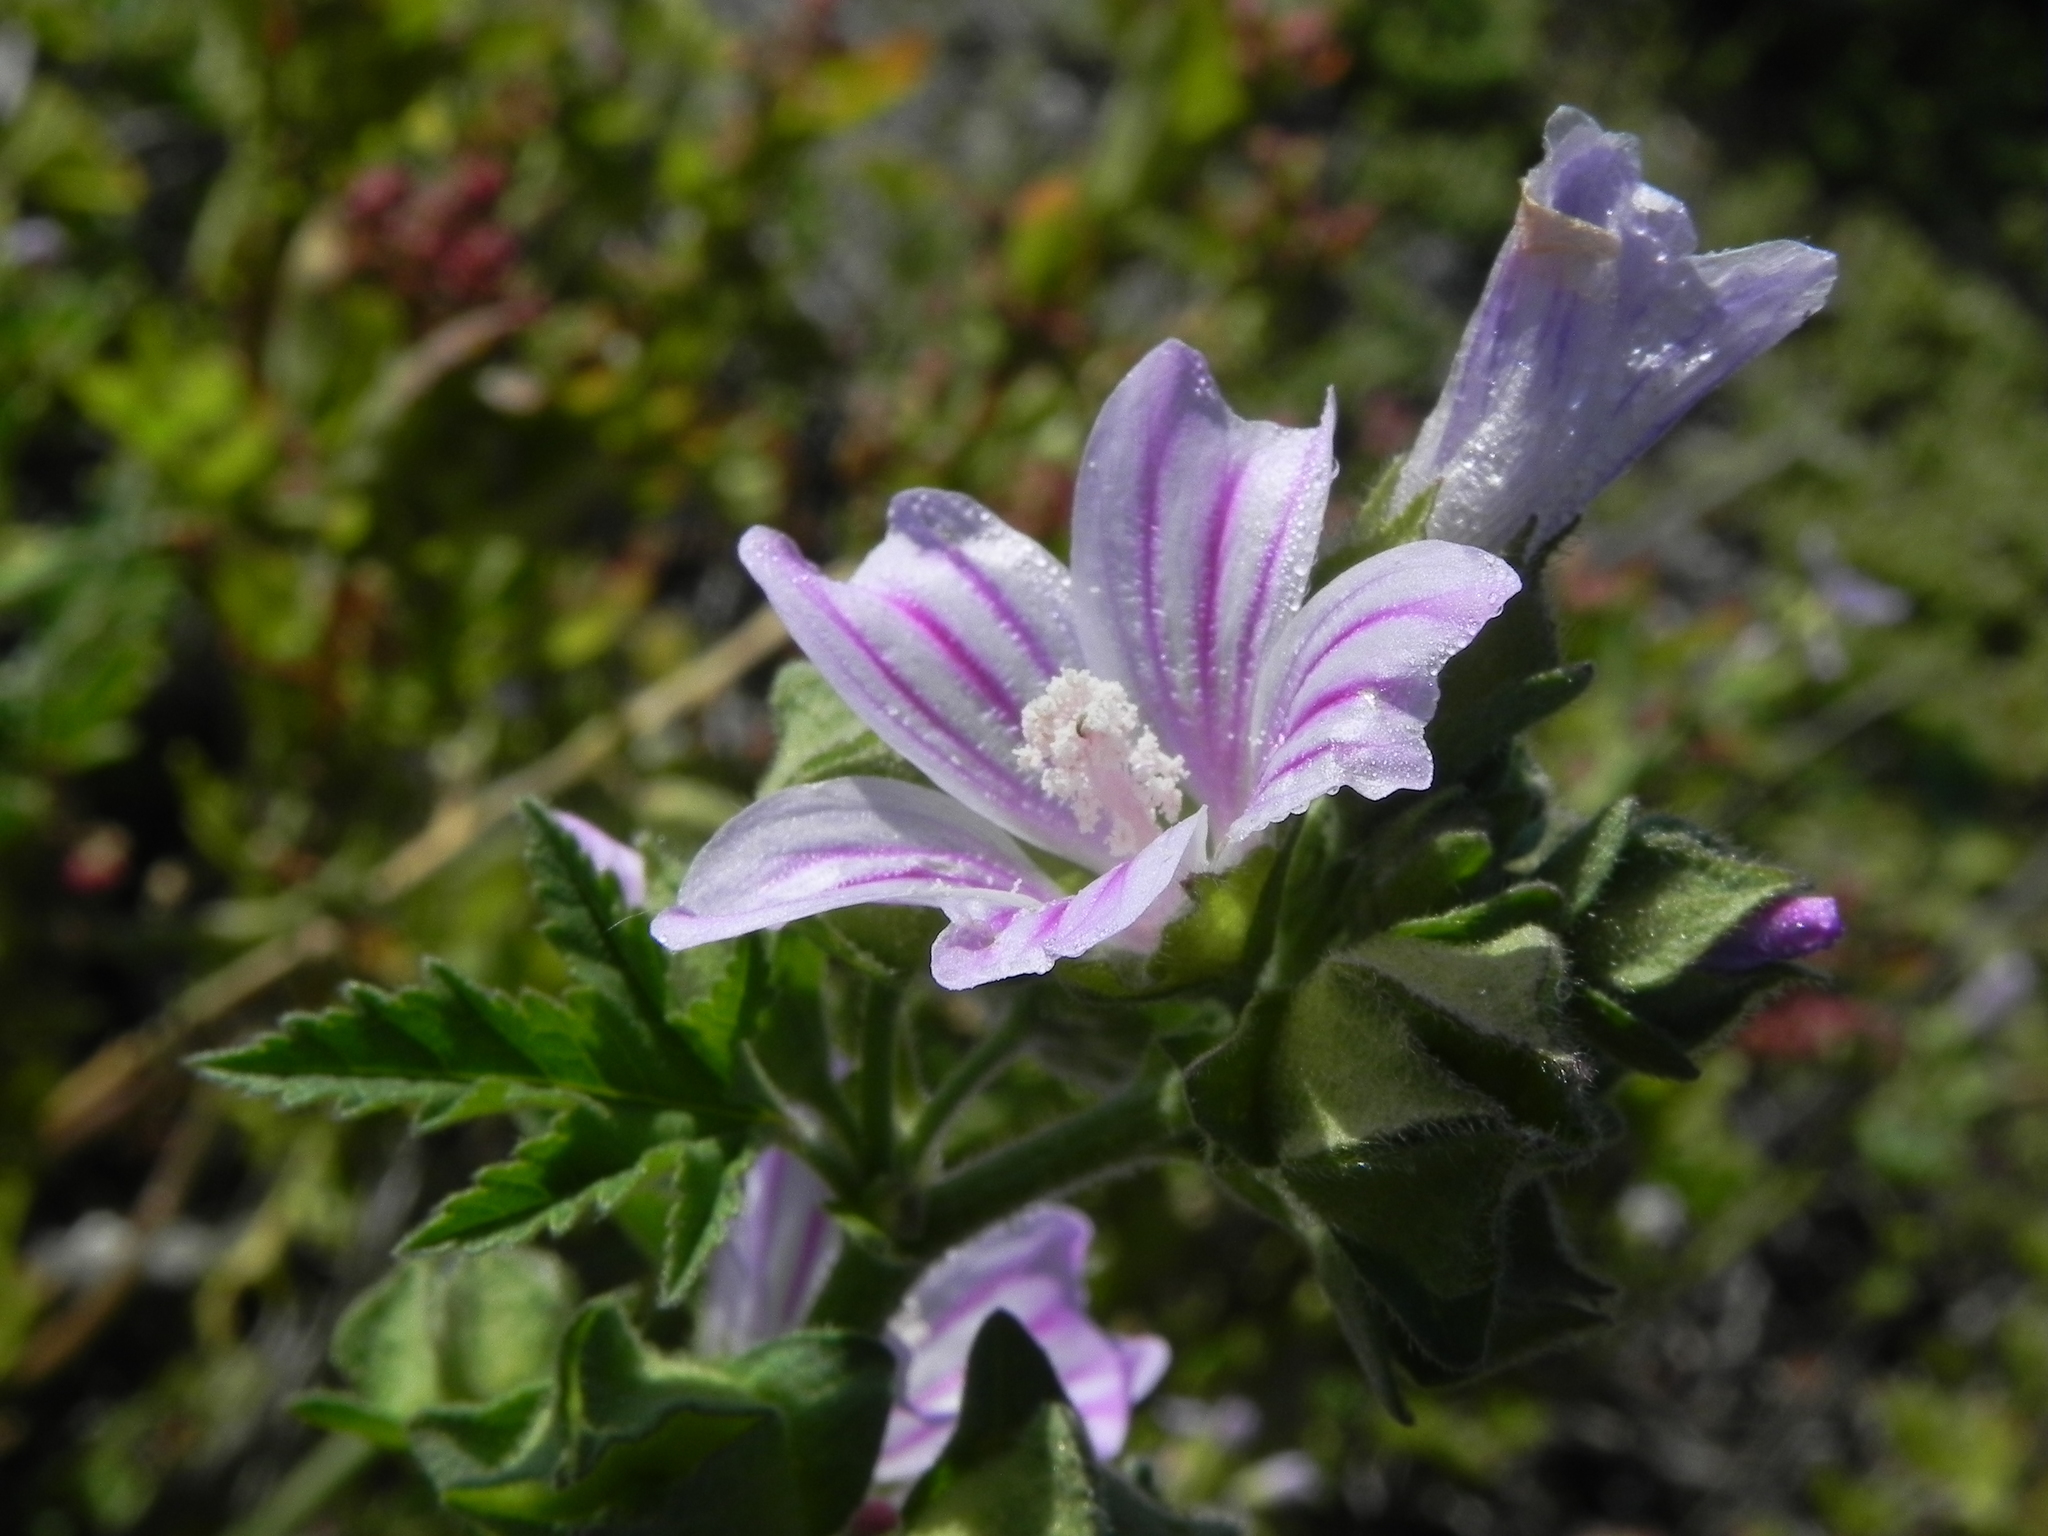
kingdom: Plantae
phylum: Tracheophyta
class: Magnoliopsida
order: Malvales
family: Malvaceae
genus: Malva
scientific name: Malva multiflora
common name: Cheeseweed
